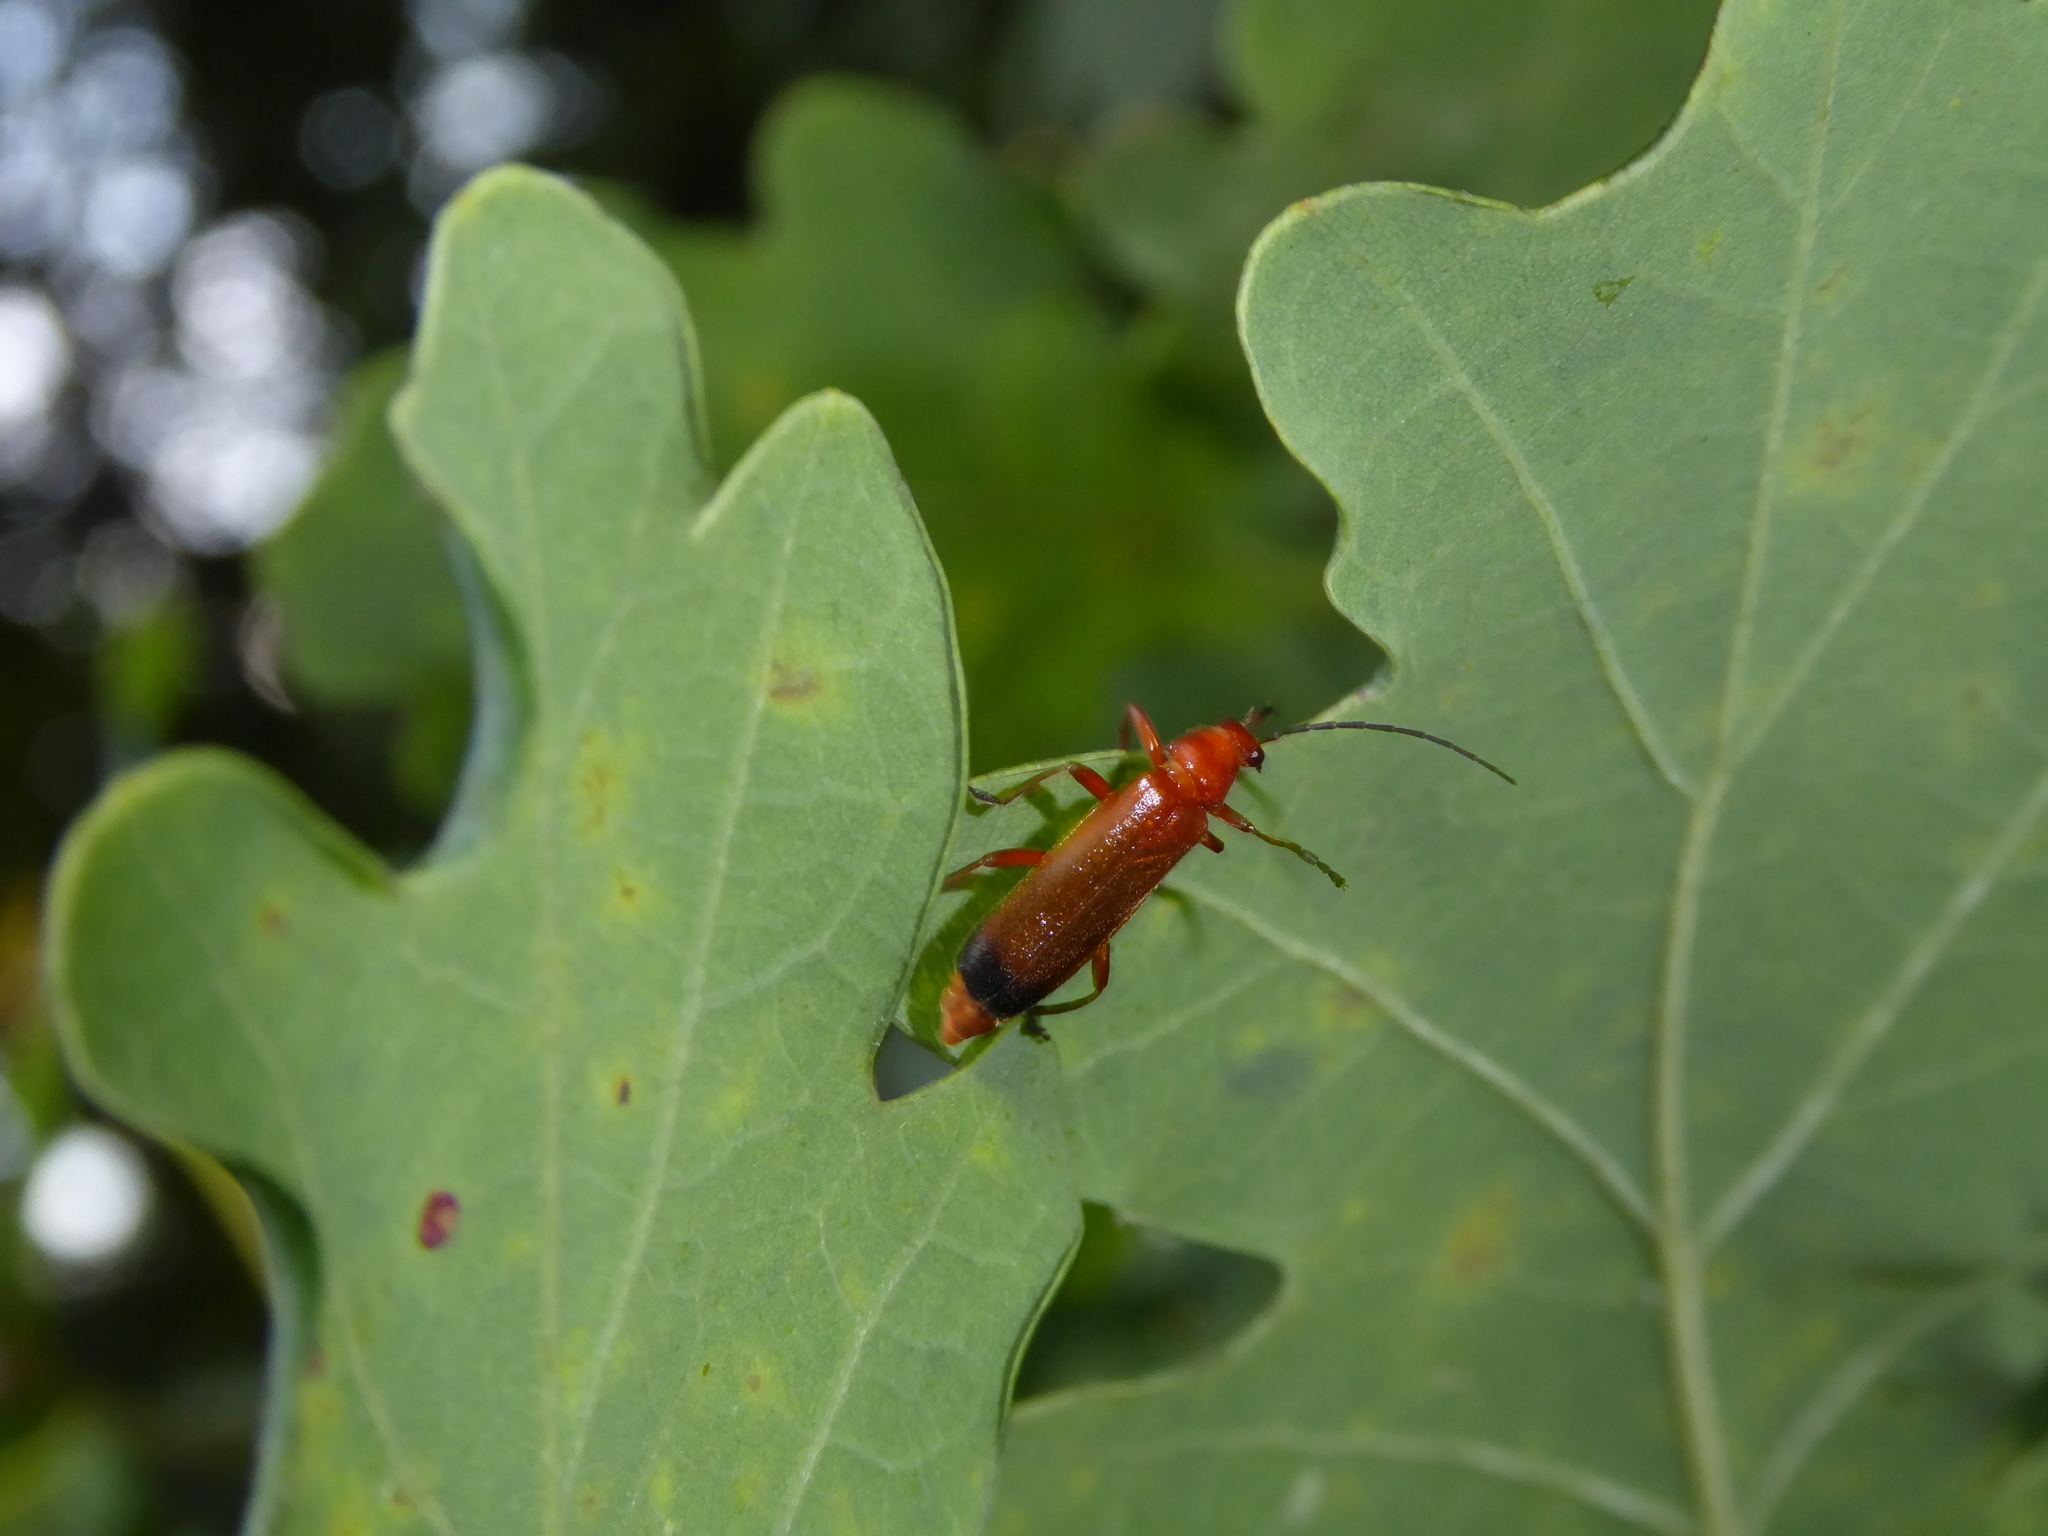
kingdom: Animalia
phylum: Arthropoda
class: Insecta
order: Coleoptera
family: Cantharidae
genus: Rhagonycha
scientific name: Rhagonycha fulva
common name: Common red soldier beetle
